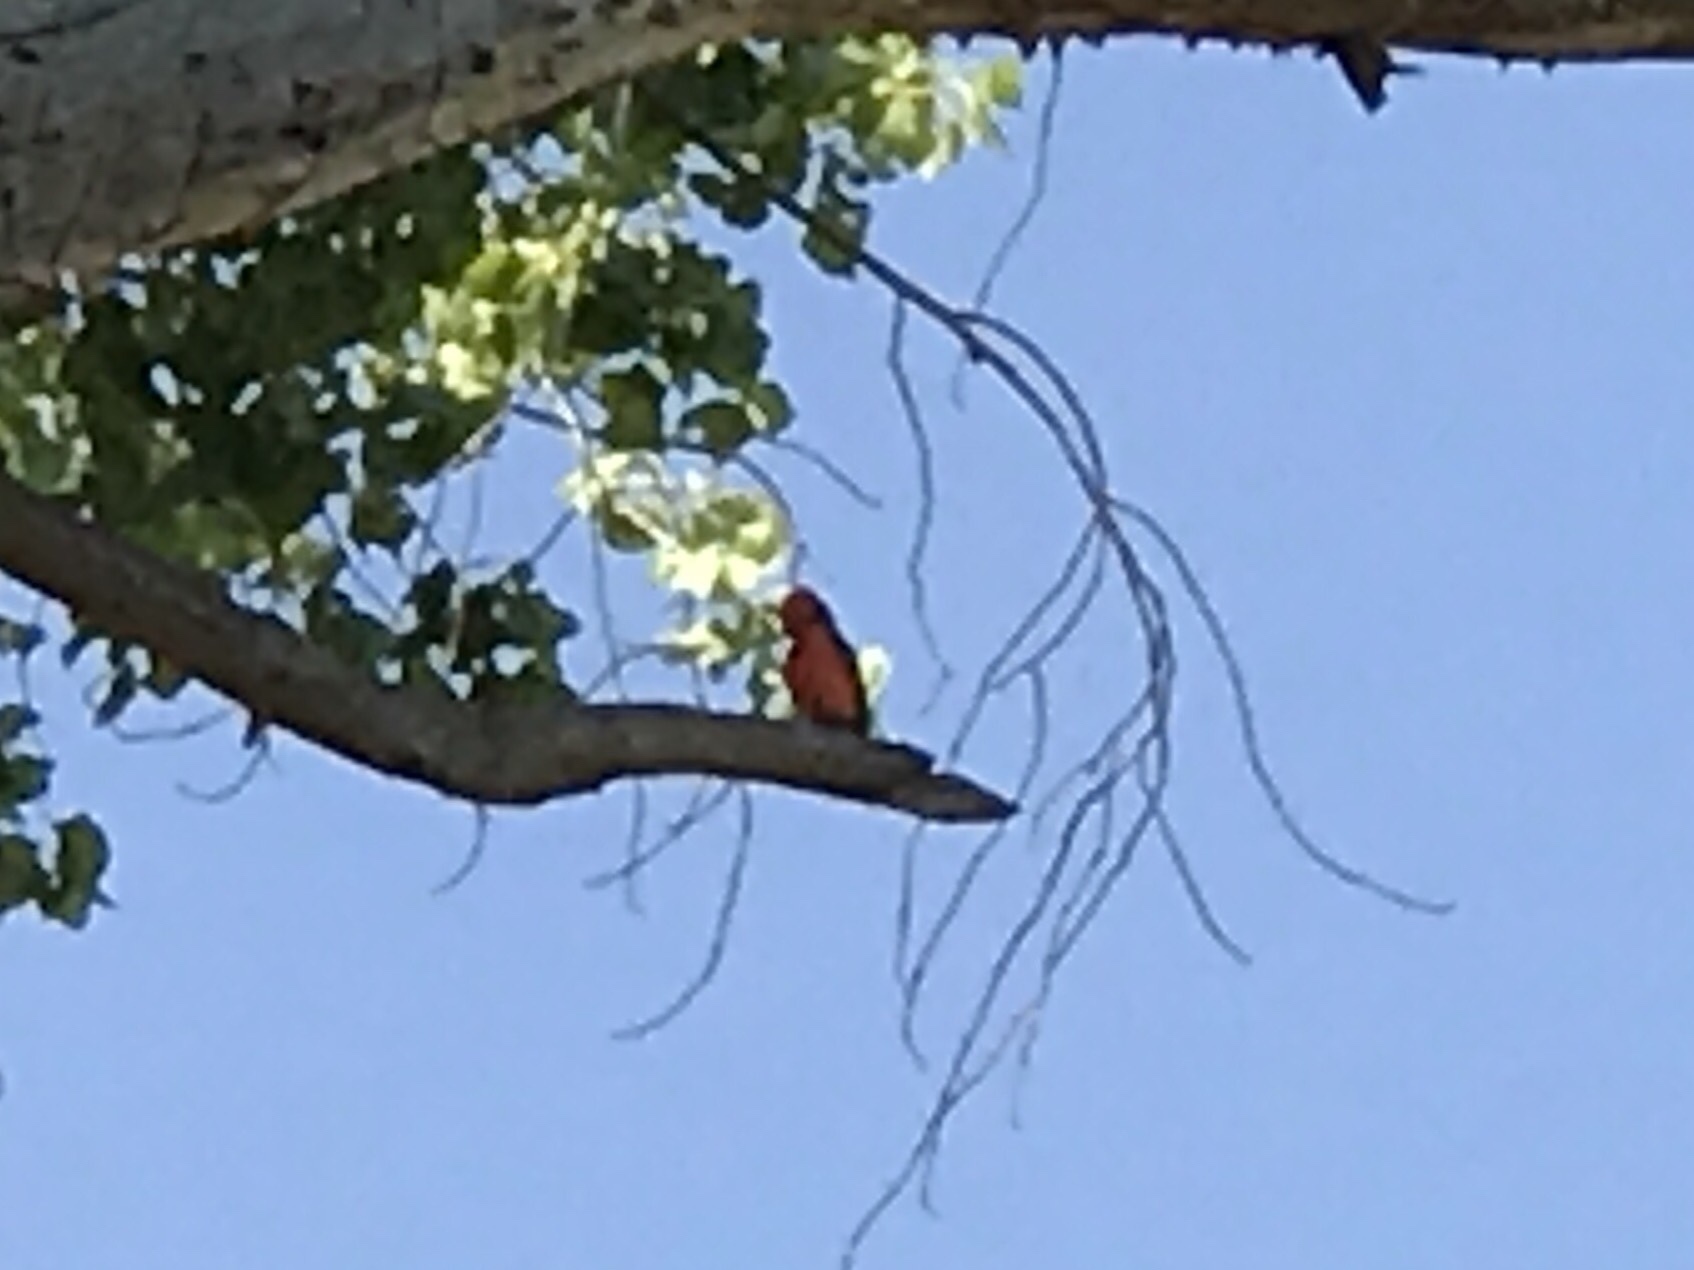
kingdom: Animalia
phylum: Chordata
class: Aves
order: Passeriformes
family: Tyrannidae
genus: Pyrocephalus
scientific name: Pyrocephalus rubinus
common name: Vermilion flycatcher
